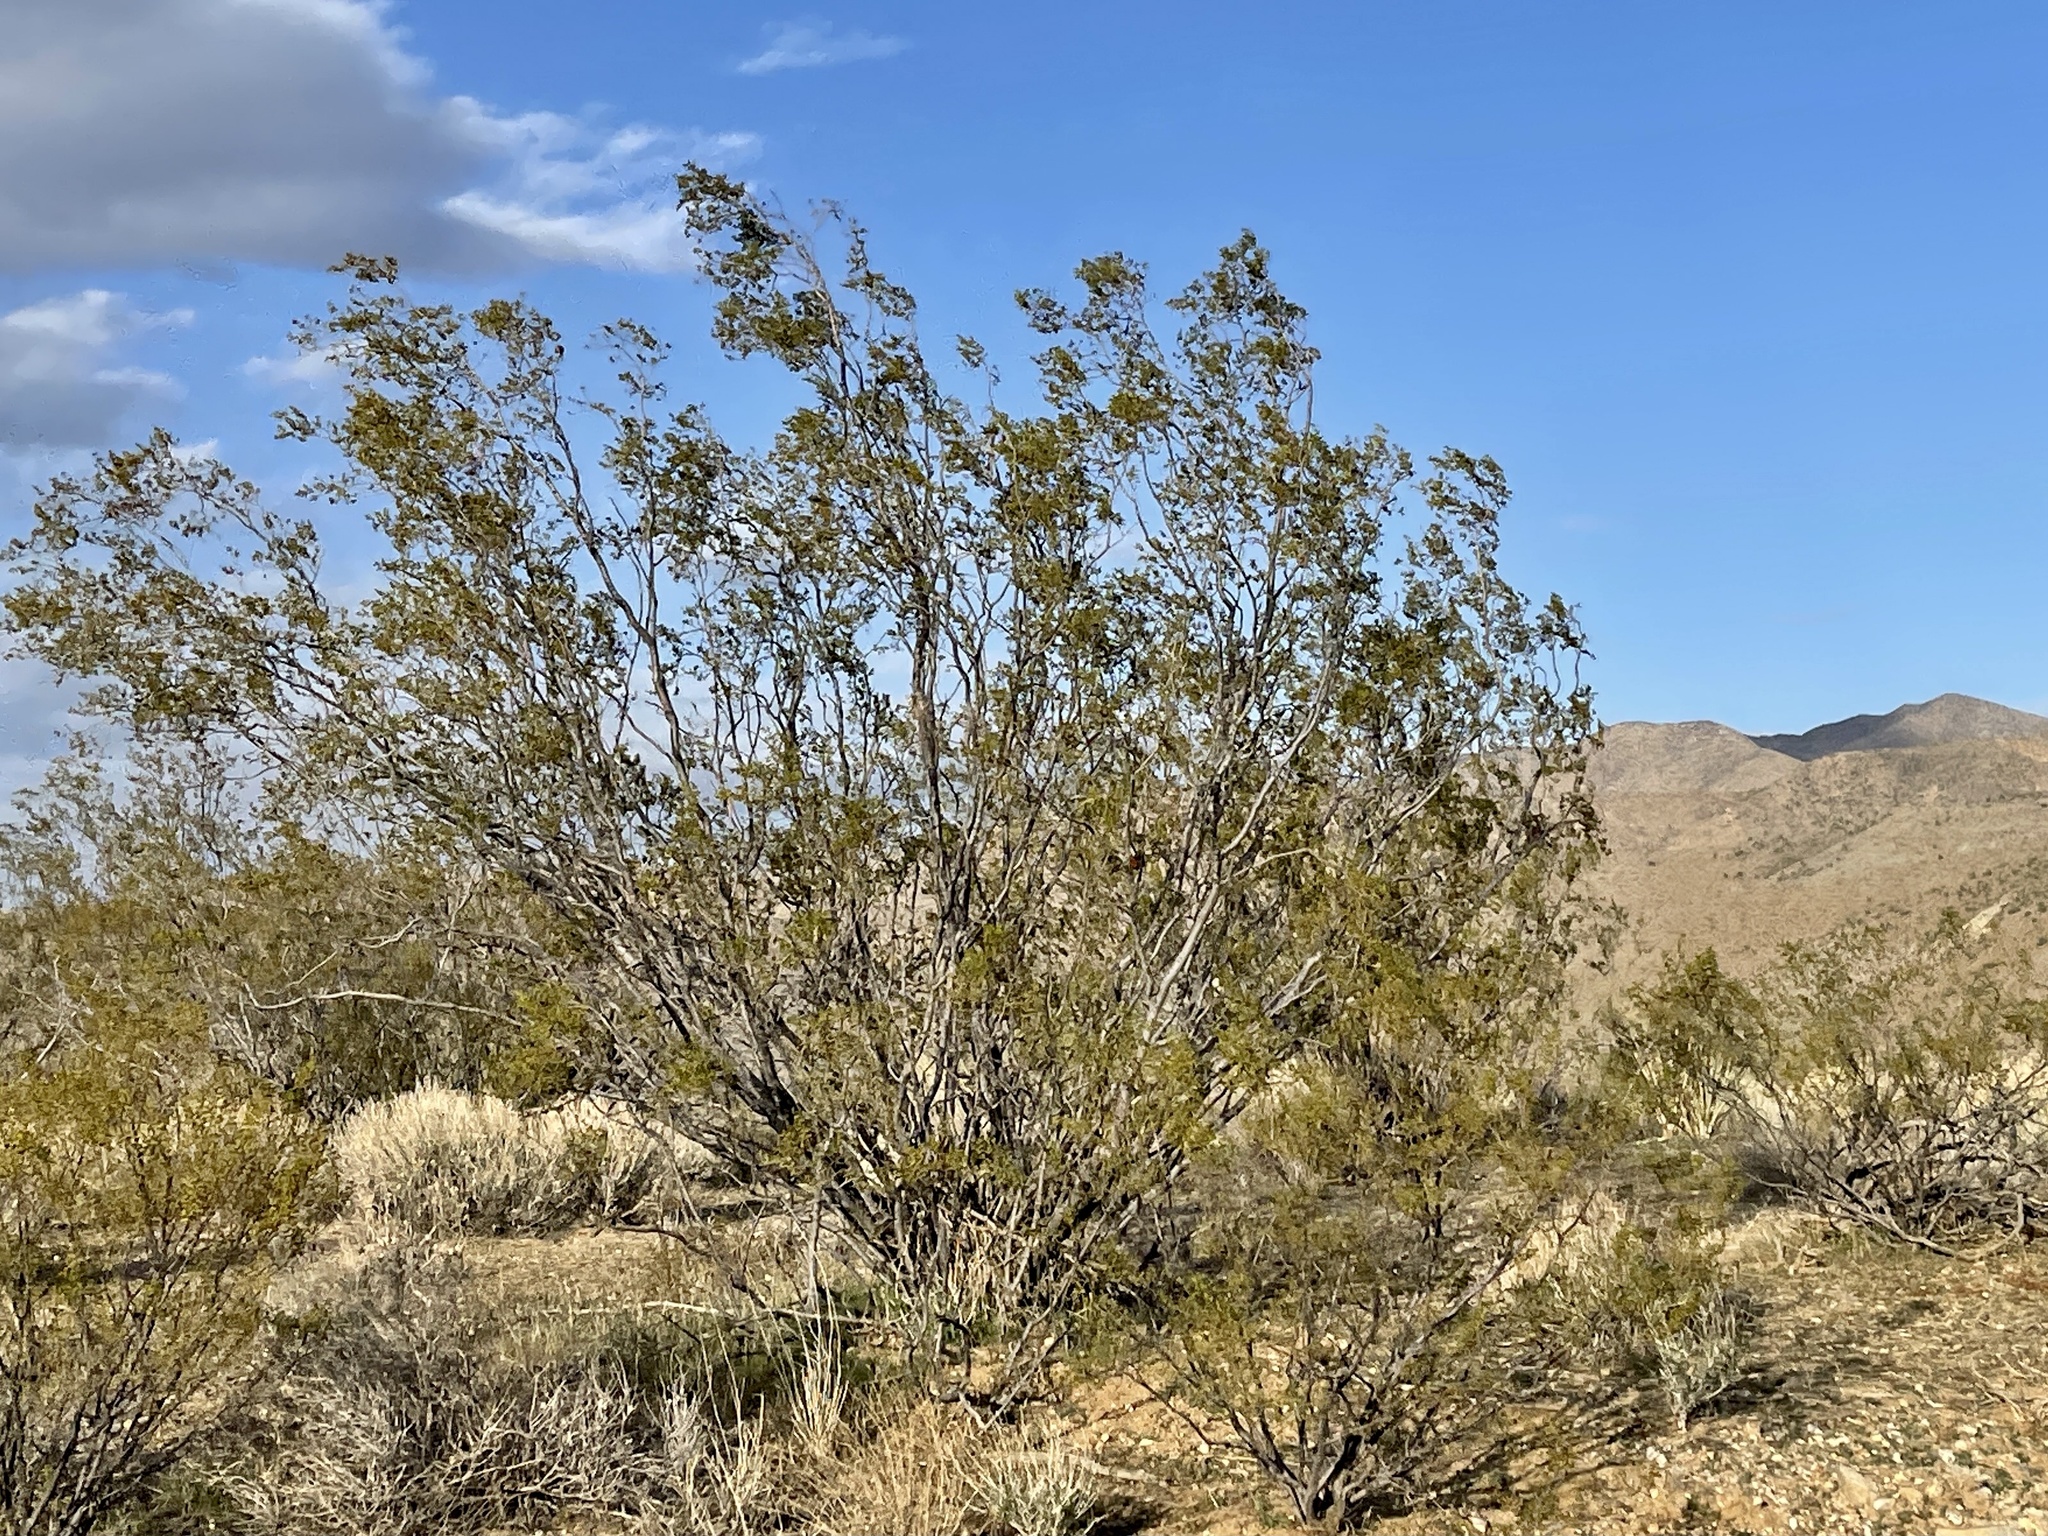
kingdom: Plantae
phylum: Tracheophyta
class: Magnoliopsida
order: Zygophyllales
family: Zygophyllaceae
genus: Larrea
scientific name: Larrea tridentata
